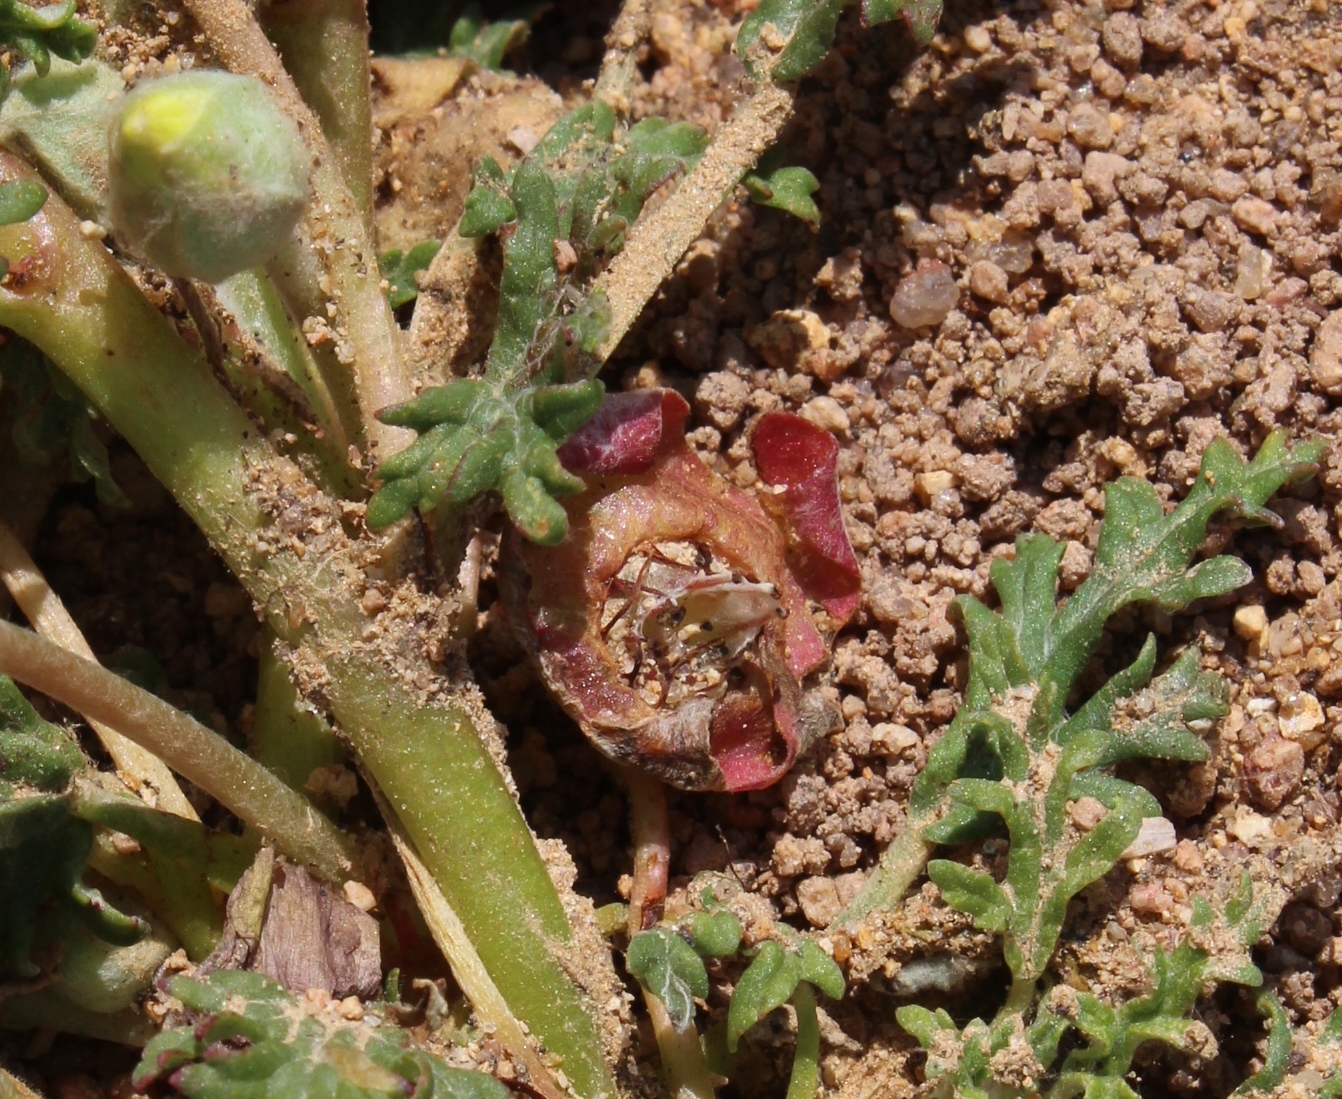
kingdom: Plantae
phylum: Tracheophyta
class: Magnoliopsida
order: Malvales
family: Neuradaceae
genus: Grielum
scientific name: Grielum humifusum
